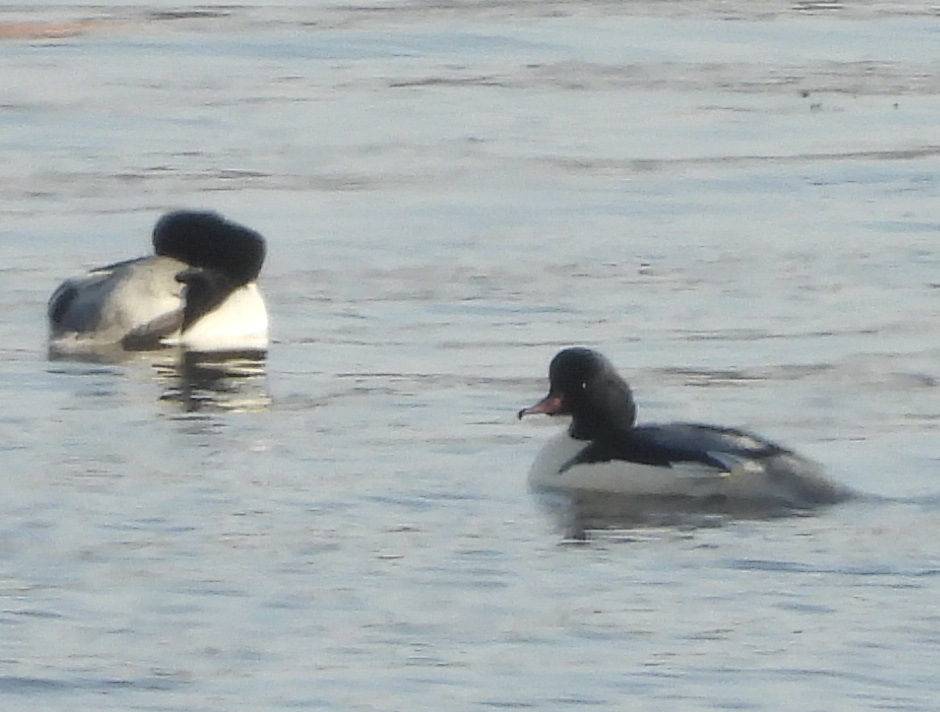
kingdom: Animalia
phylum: Chordata
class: Aves
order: Anseriformes
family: Anatidae
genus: Mergus
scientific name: Mergus merganser
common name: Common merganser
